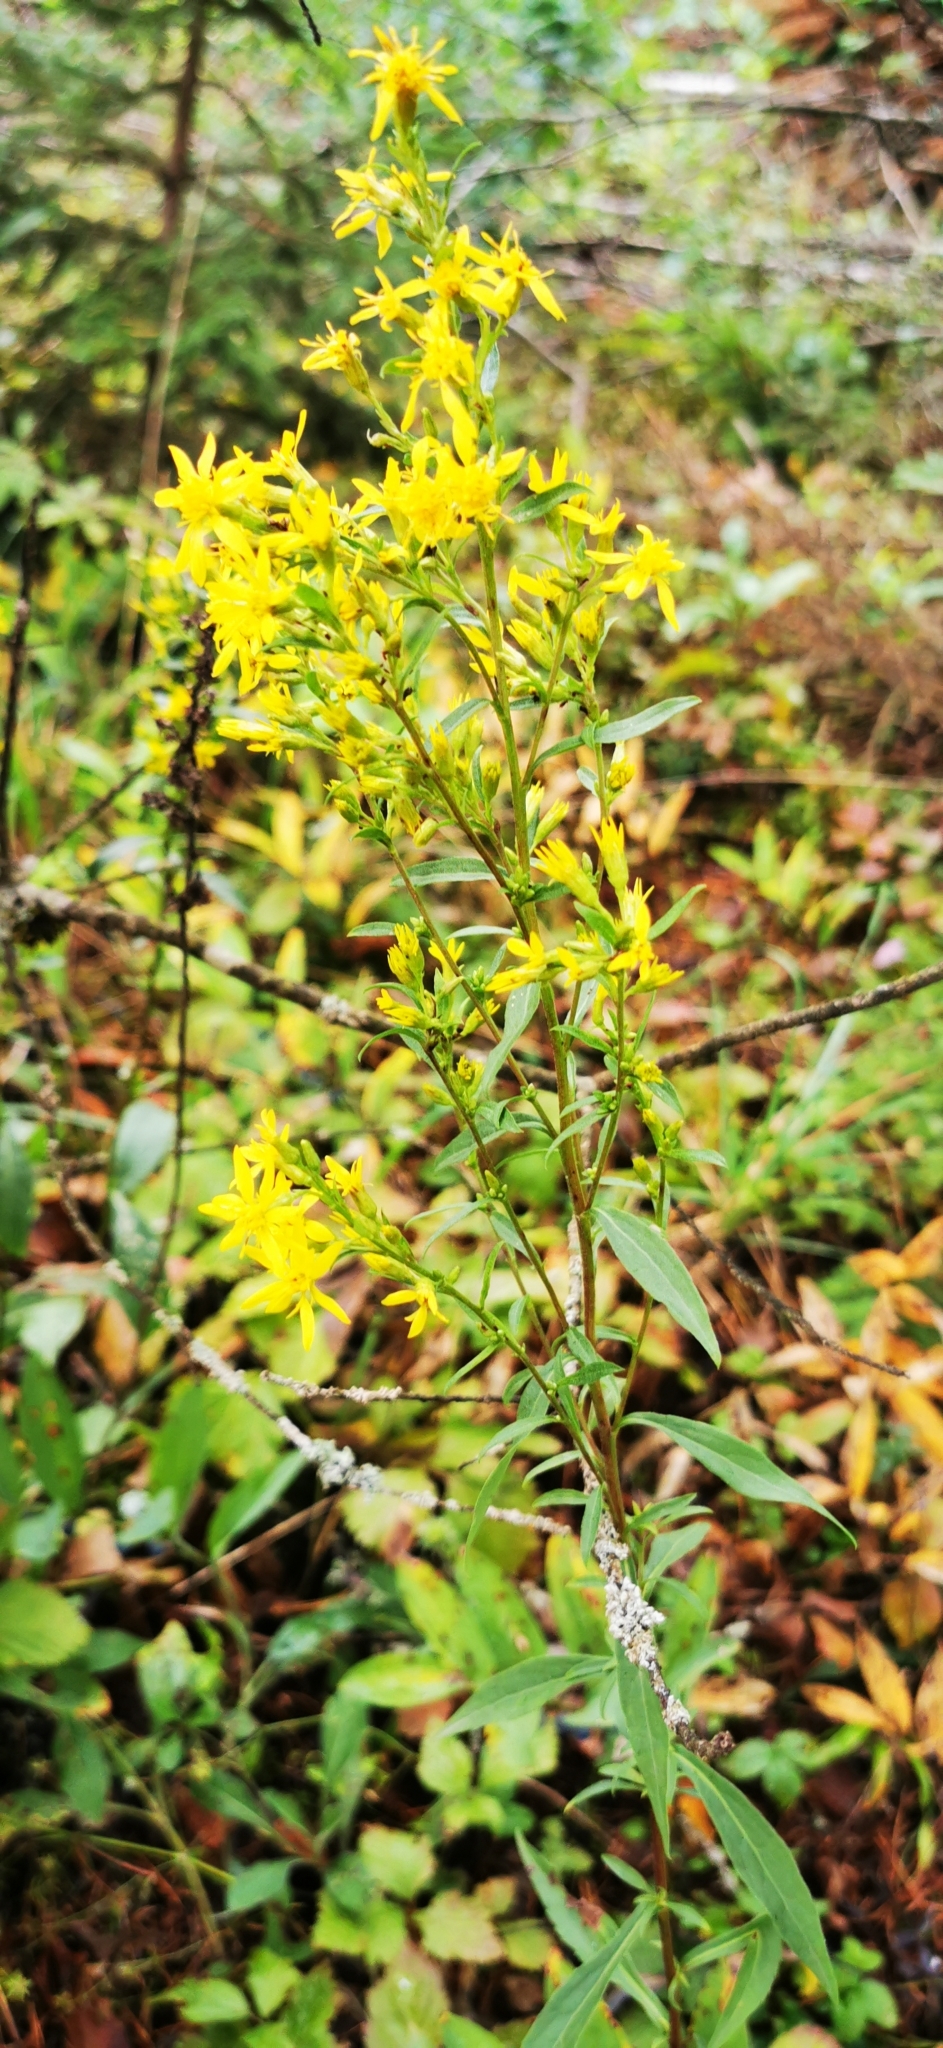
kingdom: Plantae
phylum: Tracheophyta
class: Magnoliopsida
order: Asterales
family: Asteraceae
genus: Solidago
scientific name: Solidago virgaurea
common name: Goldenrod
